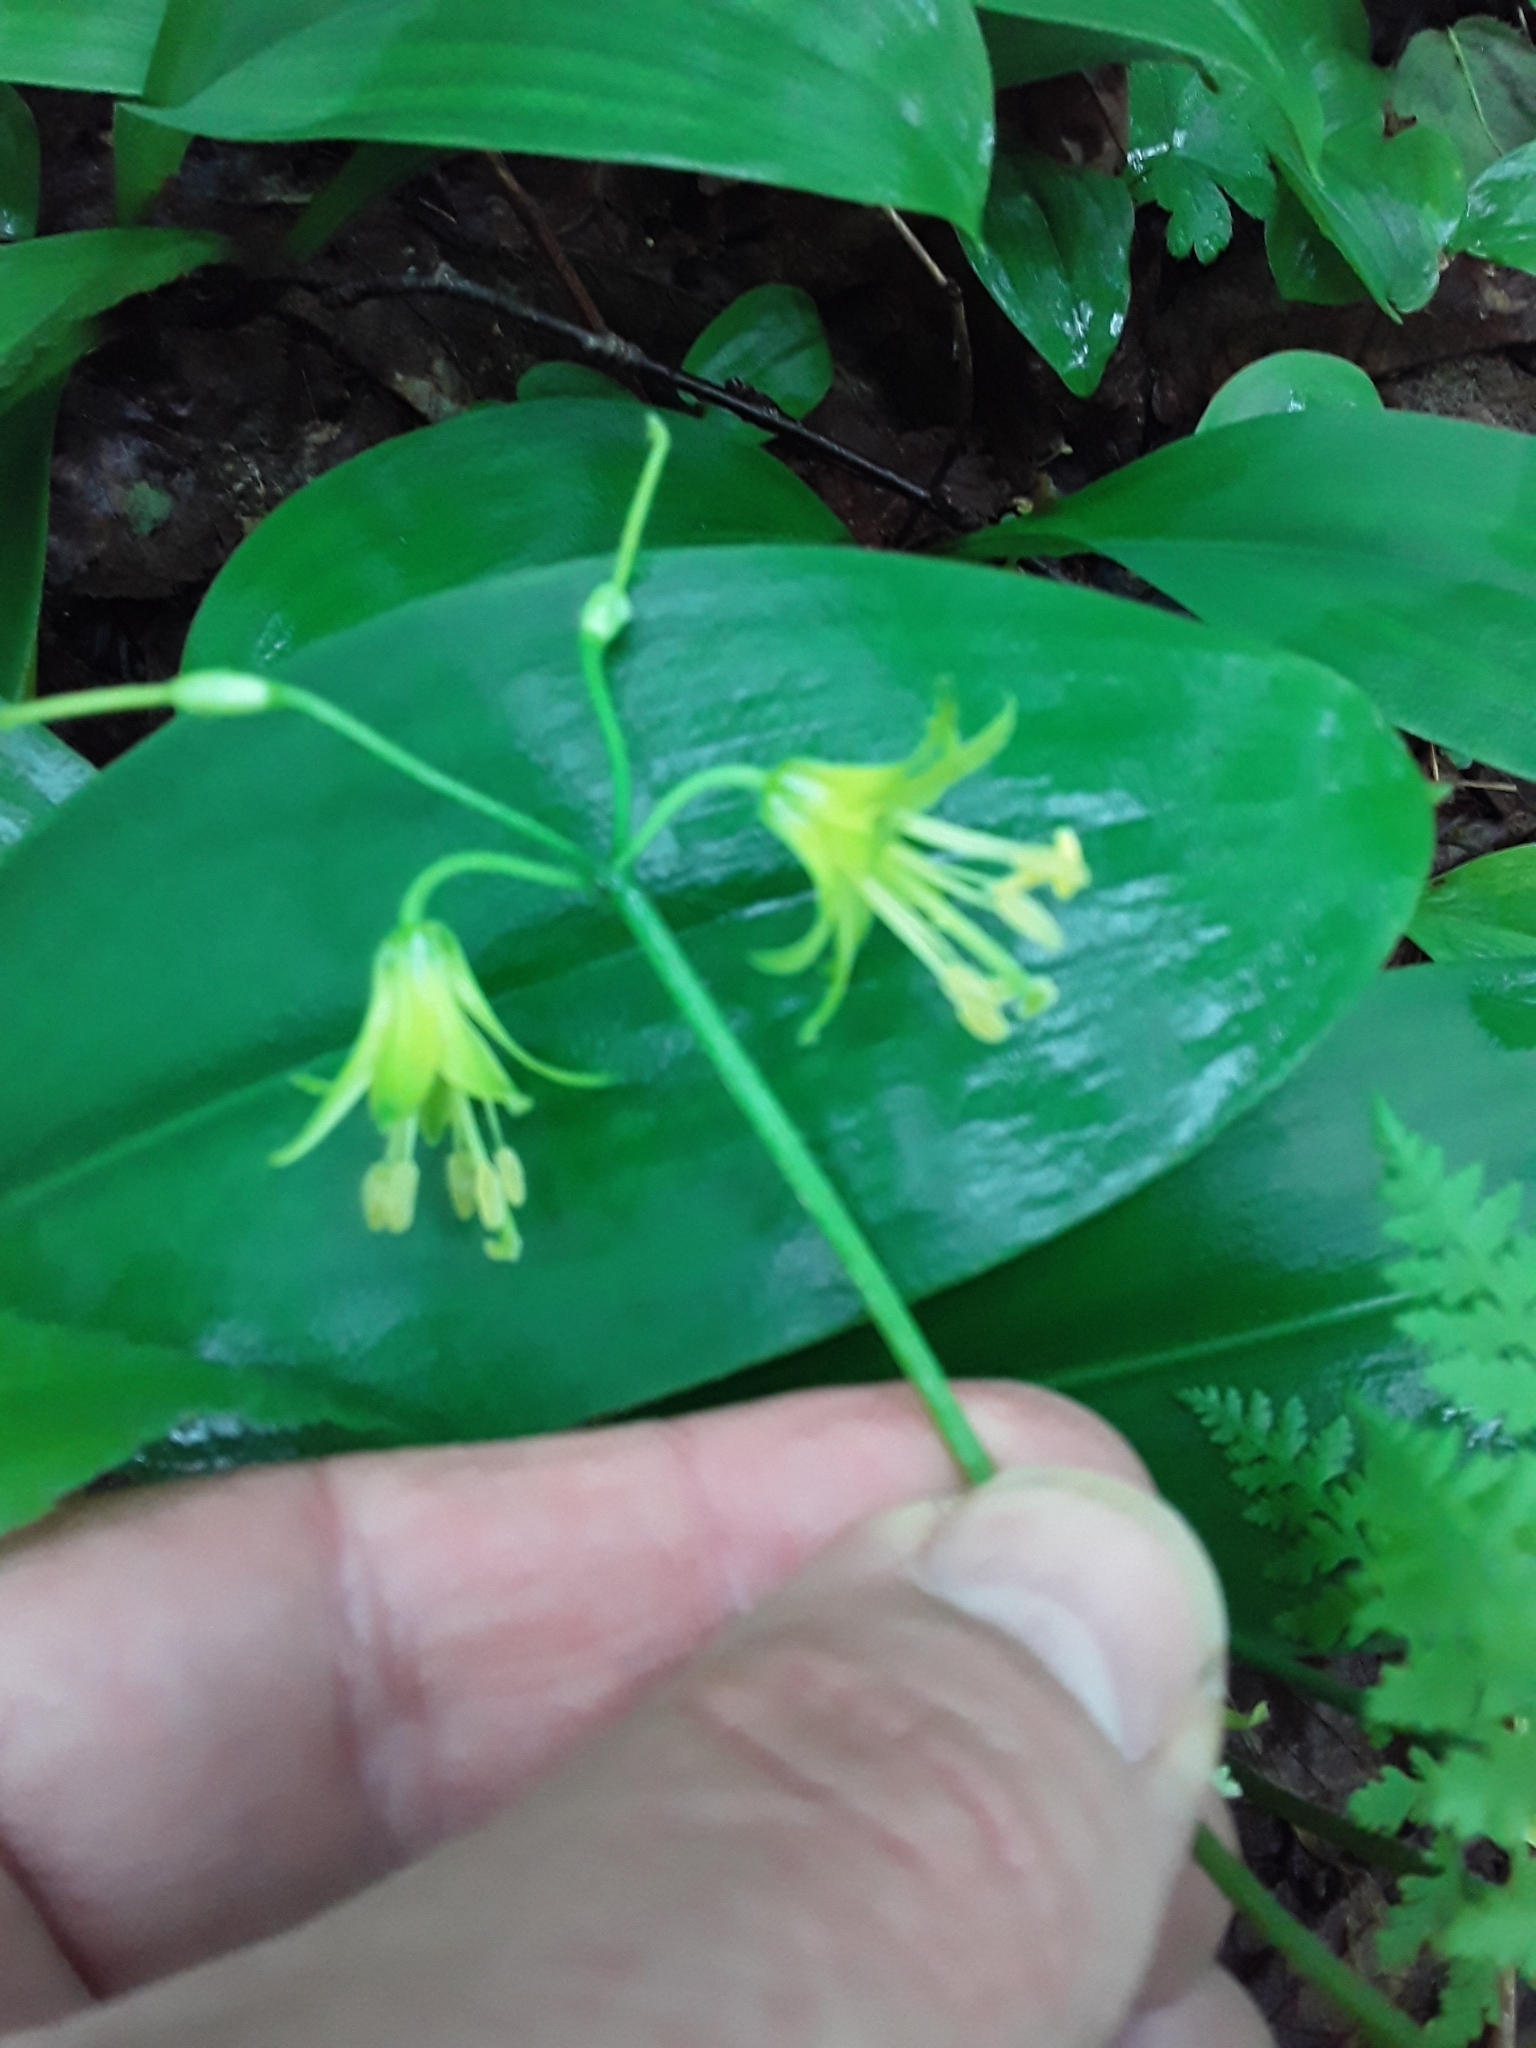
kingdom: Plantae
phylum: Tracheophyta
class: Liliopsida
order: Liliales
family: Liliaceae
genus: Clintonia
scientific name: Clintonia borealis
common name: Yellow clintonia
